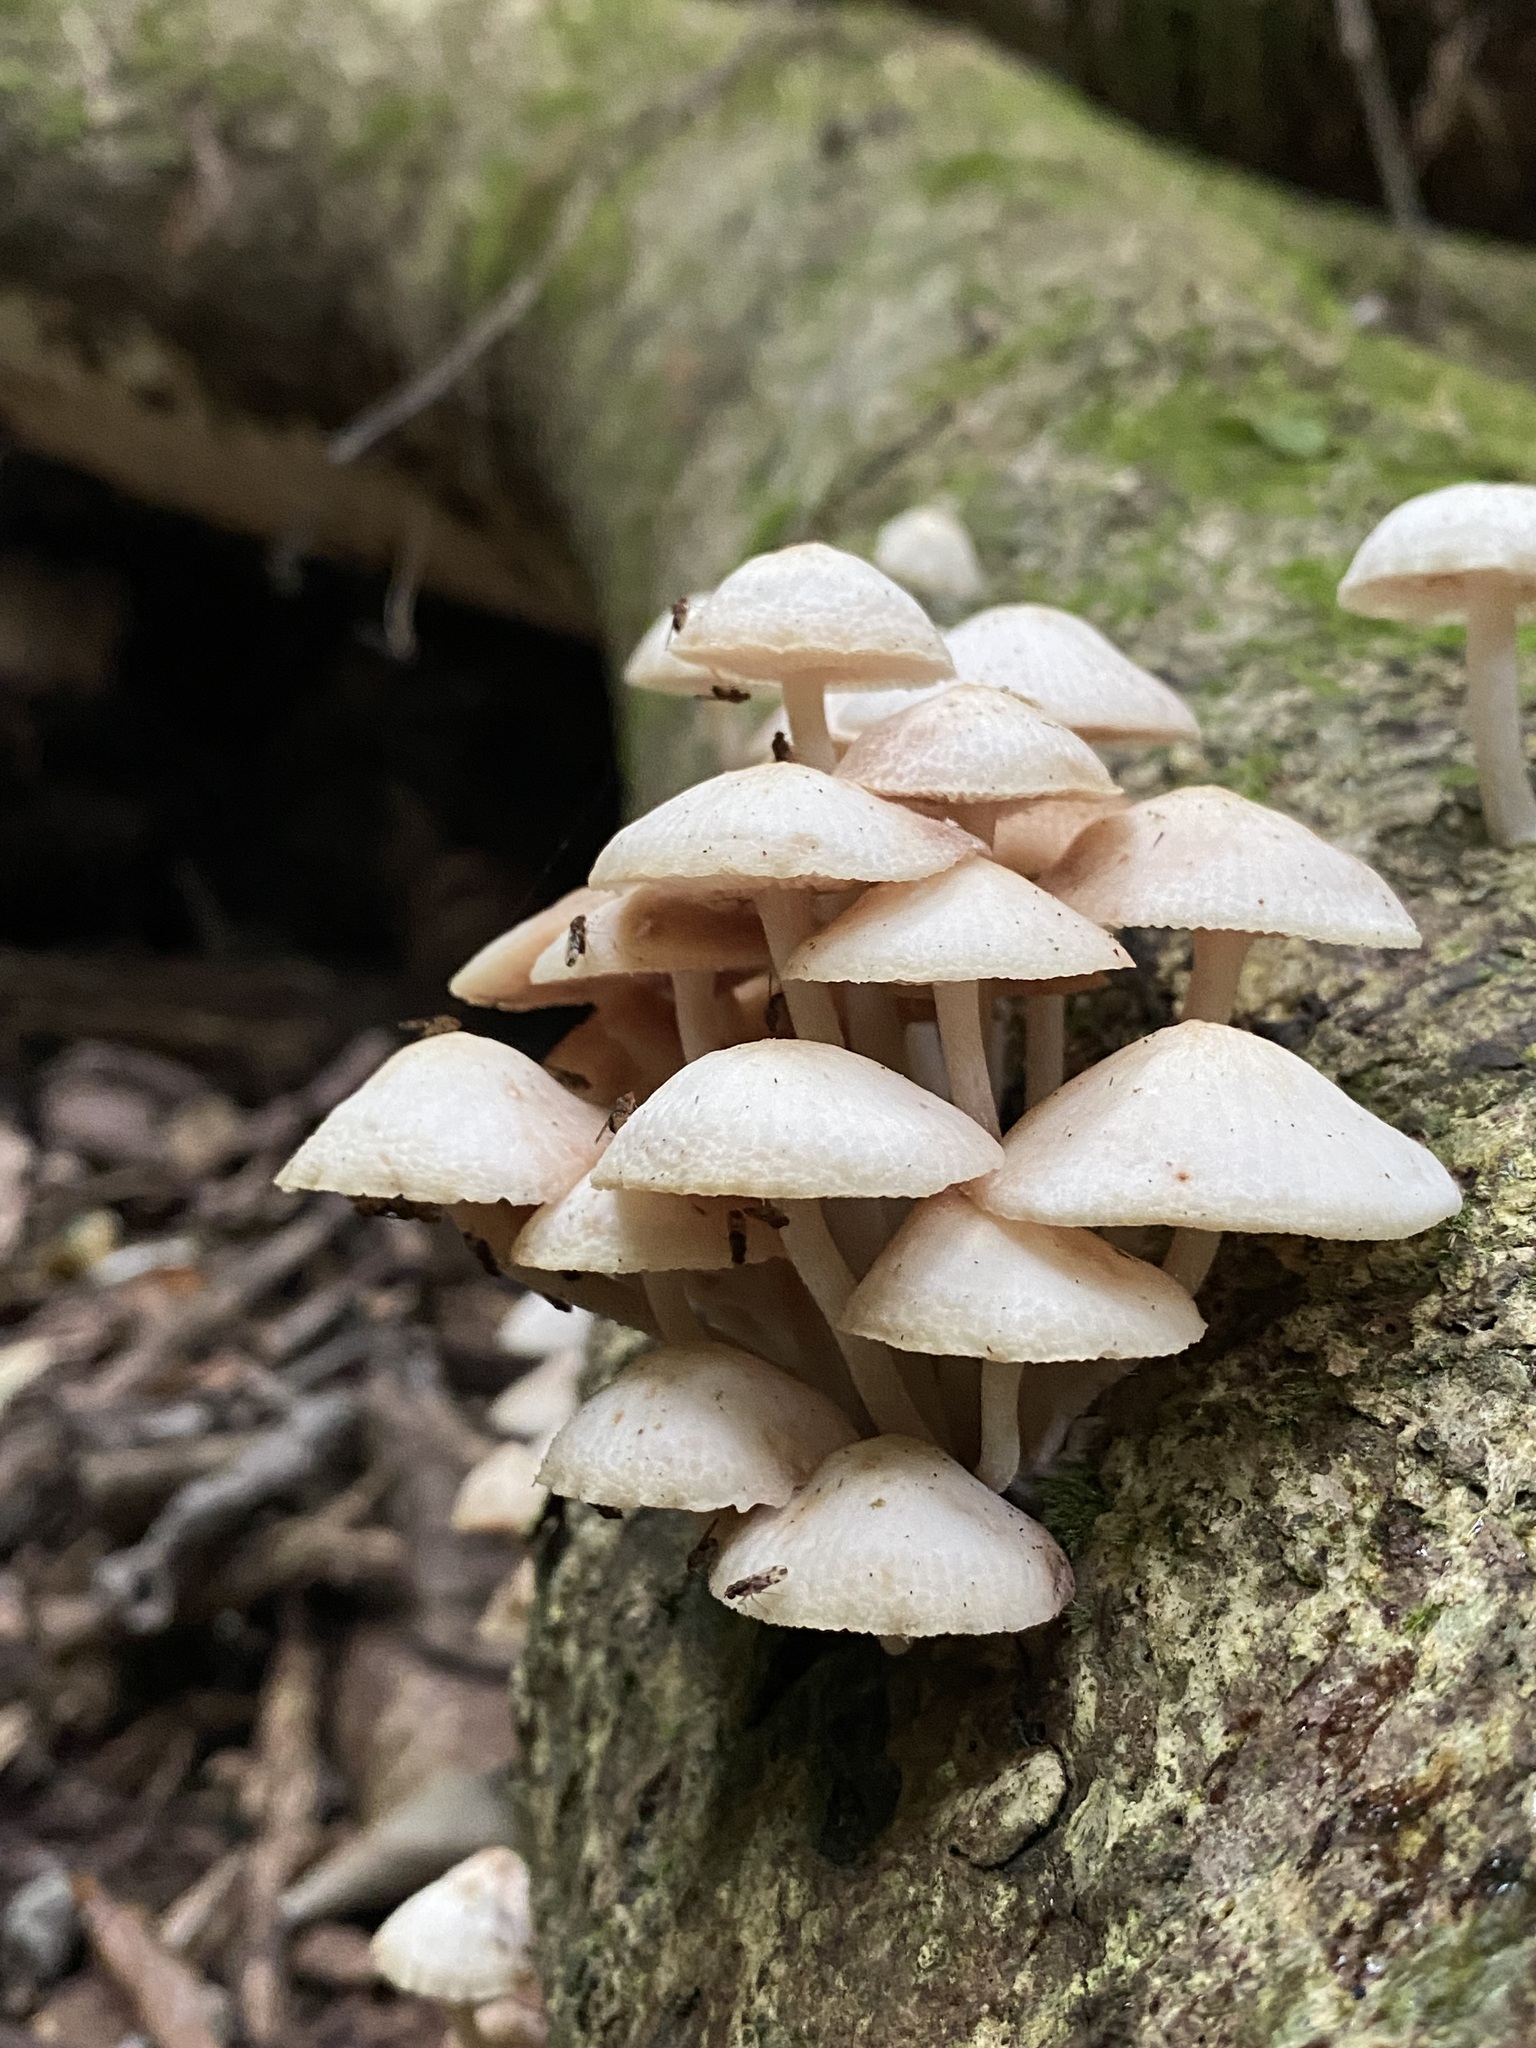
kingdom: Fungi
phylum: Basidiomycota
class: Agaricomycetes
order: Agaricales
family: Mycenaceae
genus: Filoboletus
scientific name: Filoboletus manipularis
